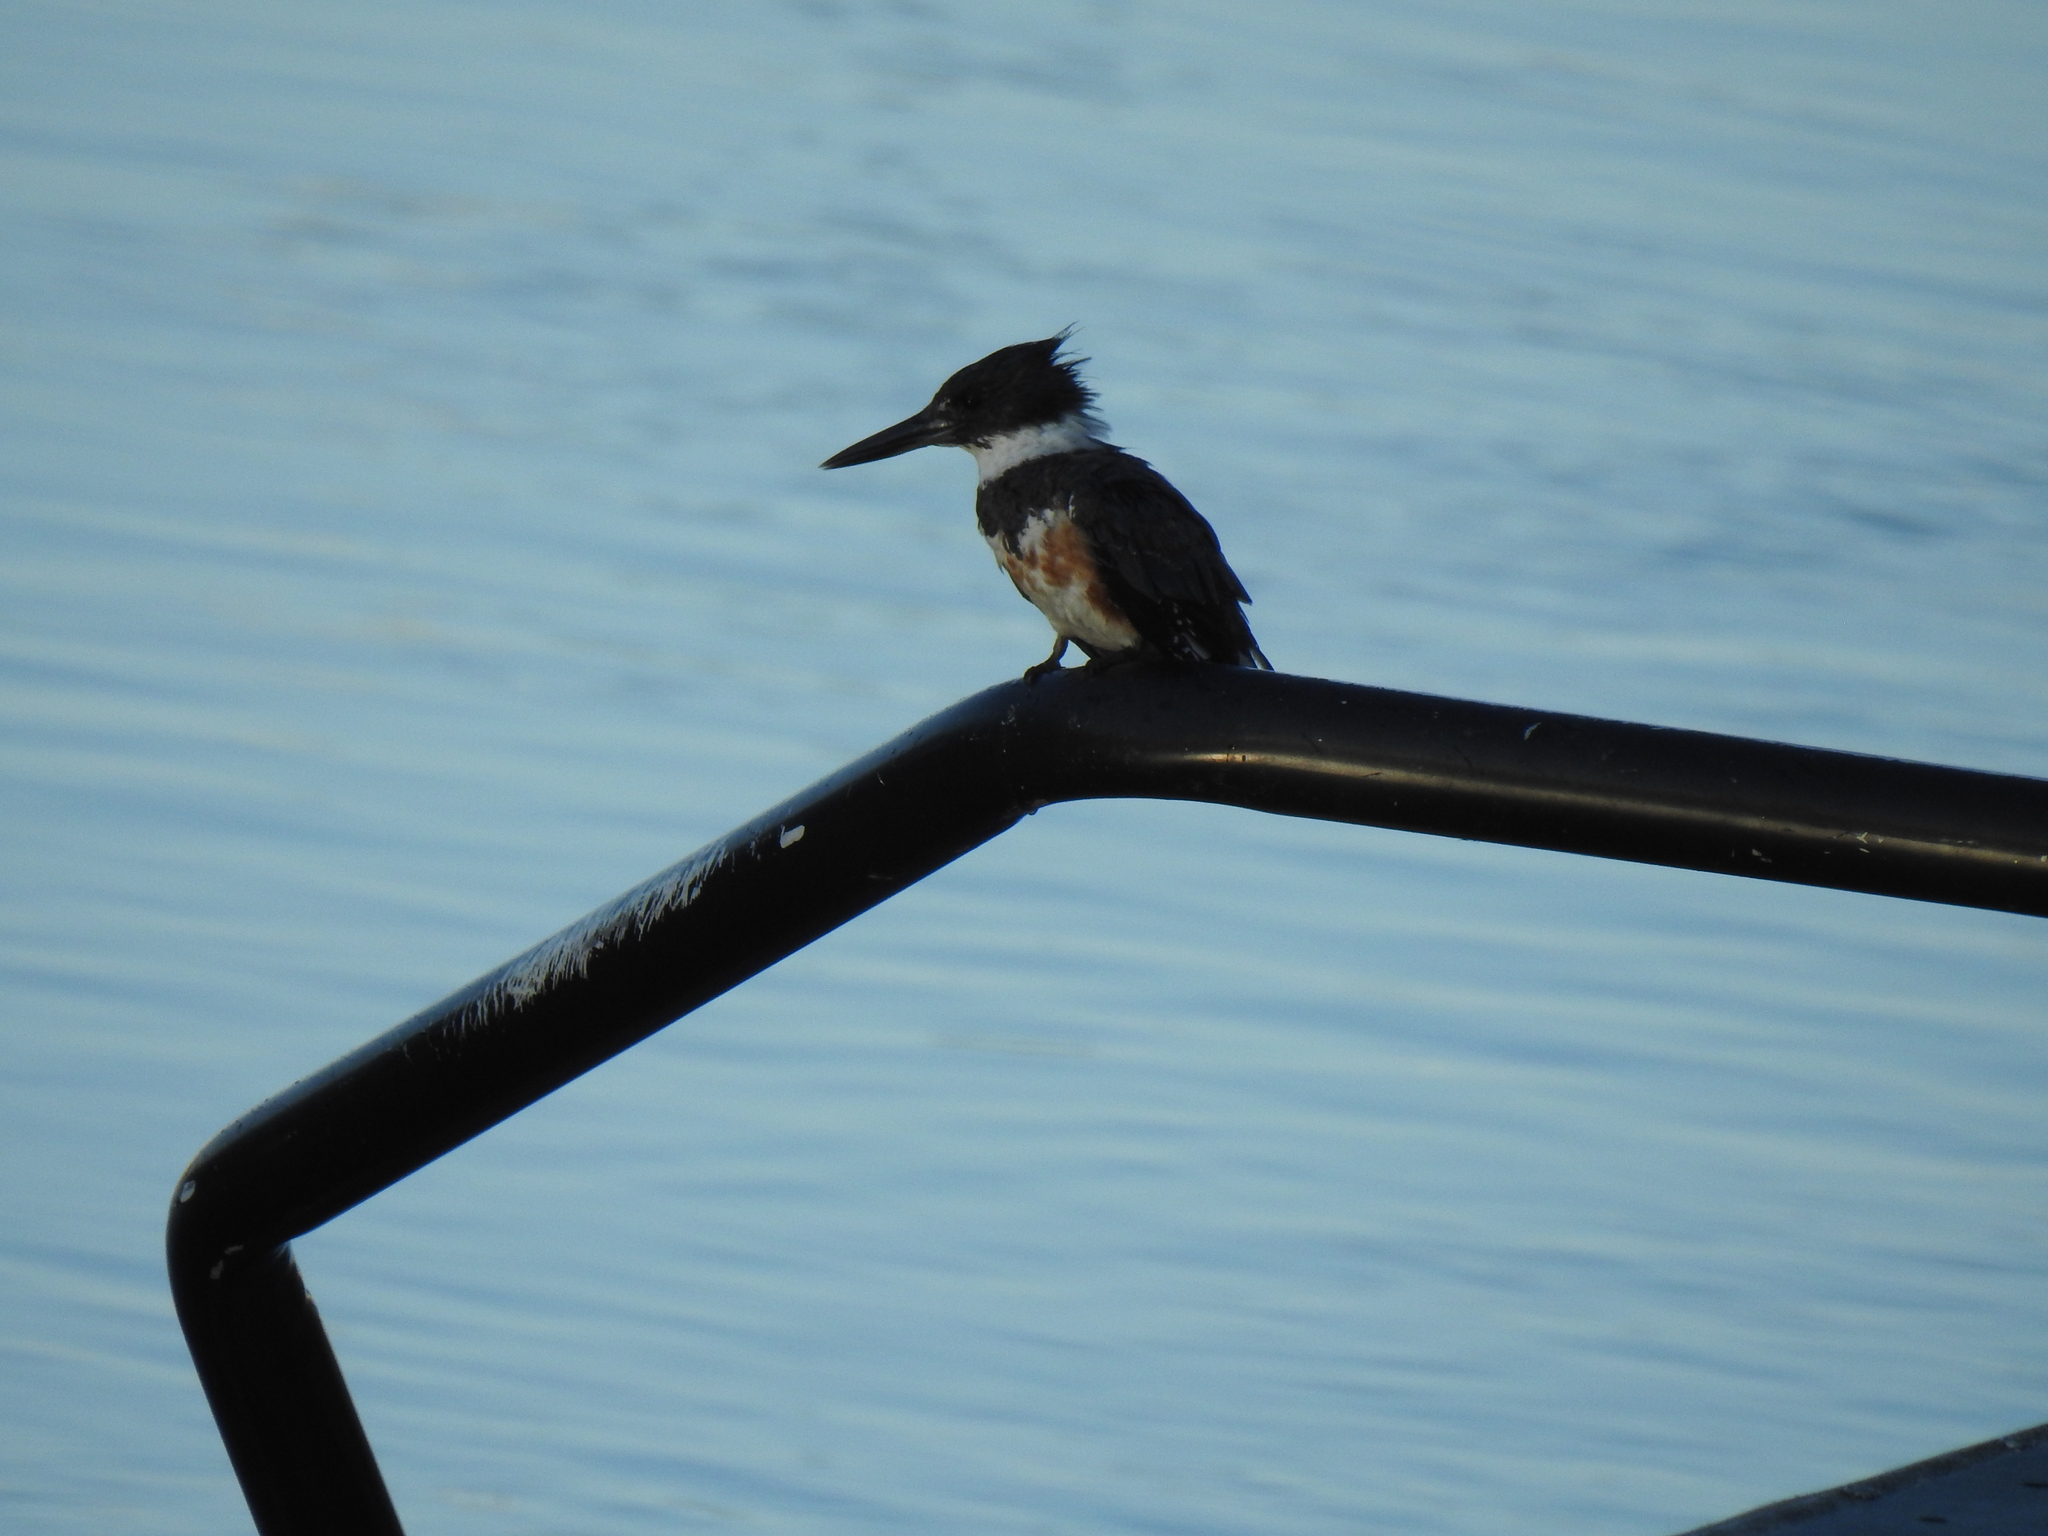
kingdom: Animalia
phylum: Chordata
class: Aves
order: Coraciiformes
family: Alcedinidae
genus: Megaceryle
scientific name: Megaceryle alcyon
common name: Belted kingfisher
